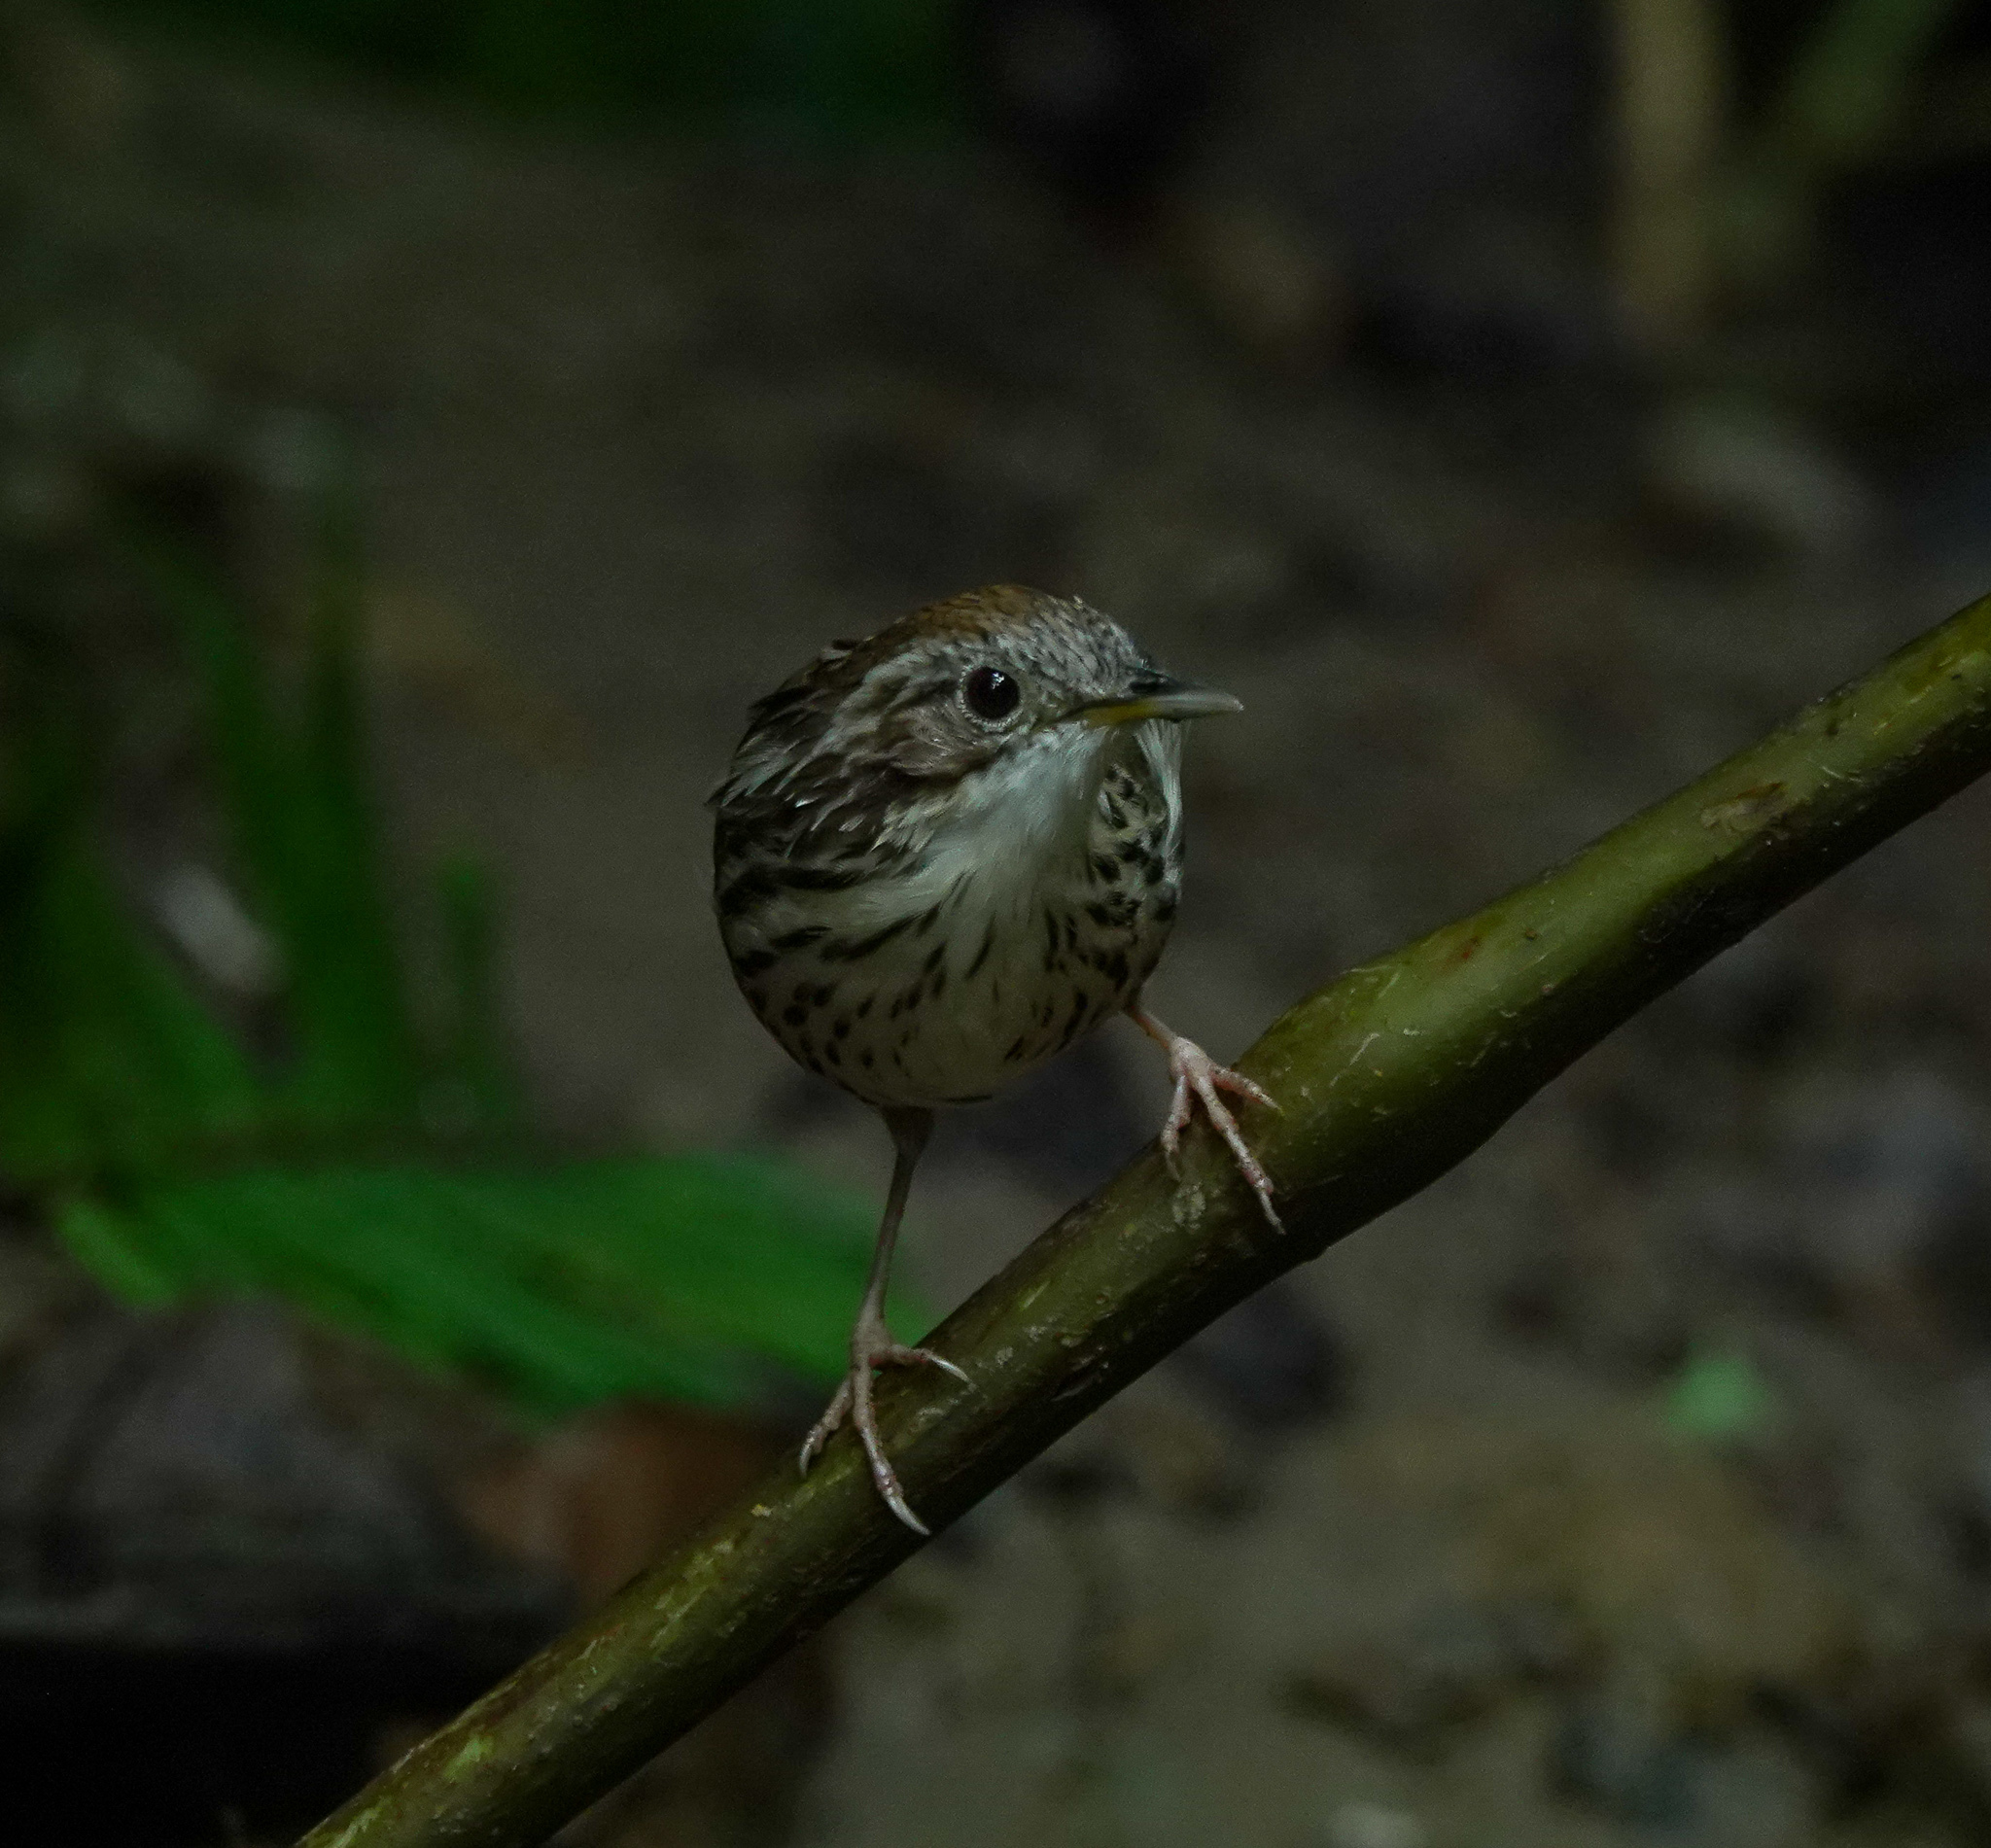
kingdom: Animalia
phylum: Chordata
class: Aves
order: Passeriformes
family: Pellorneidae
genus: Pellorneum
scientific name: Pellorneum ruficeps
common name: Puff-throated babbler
